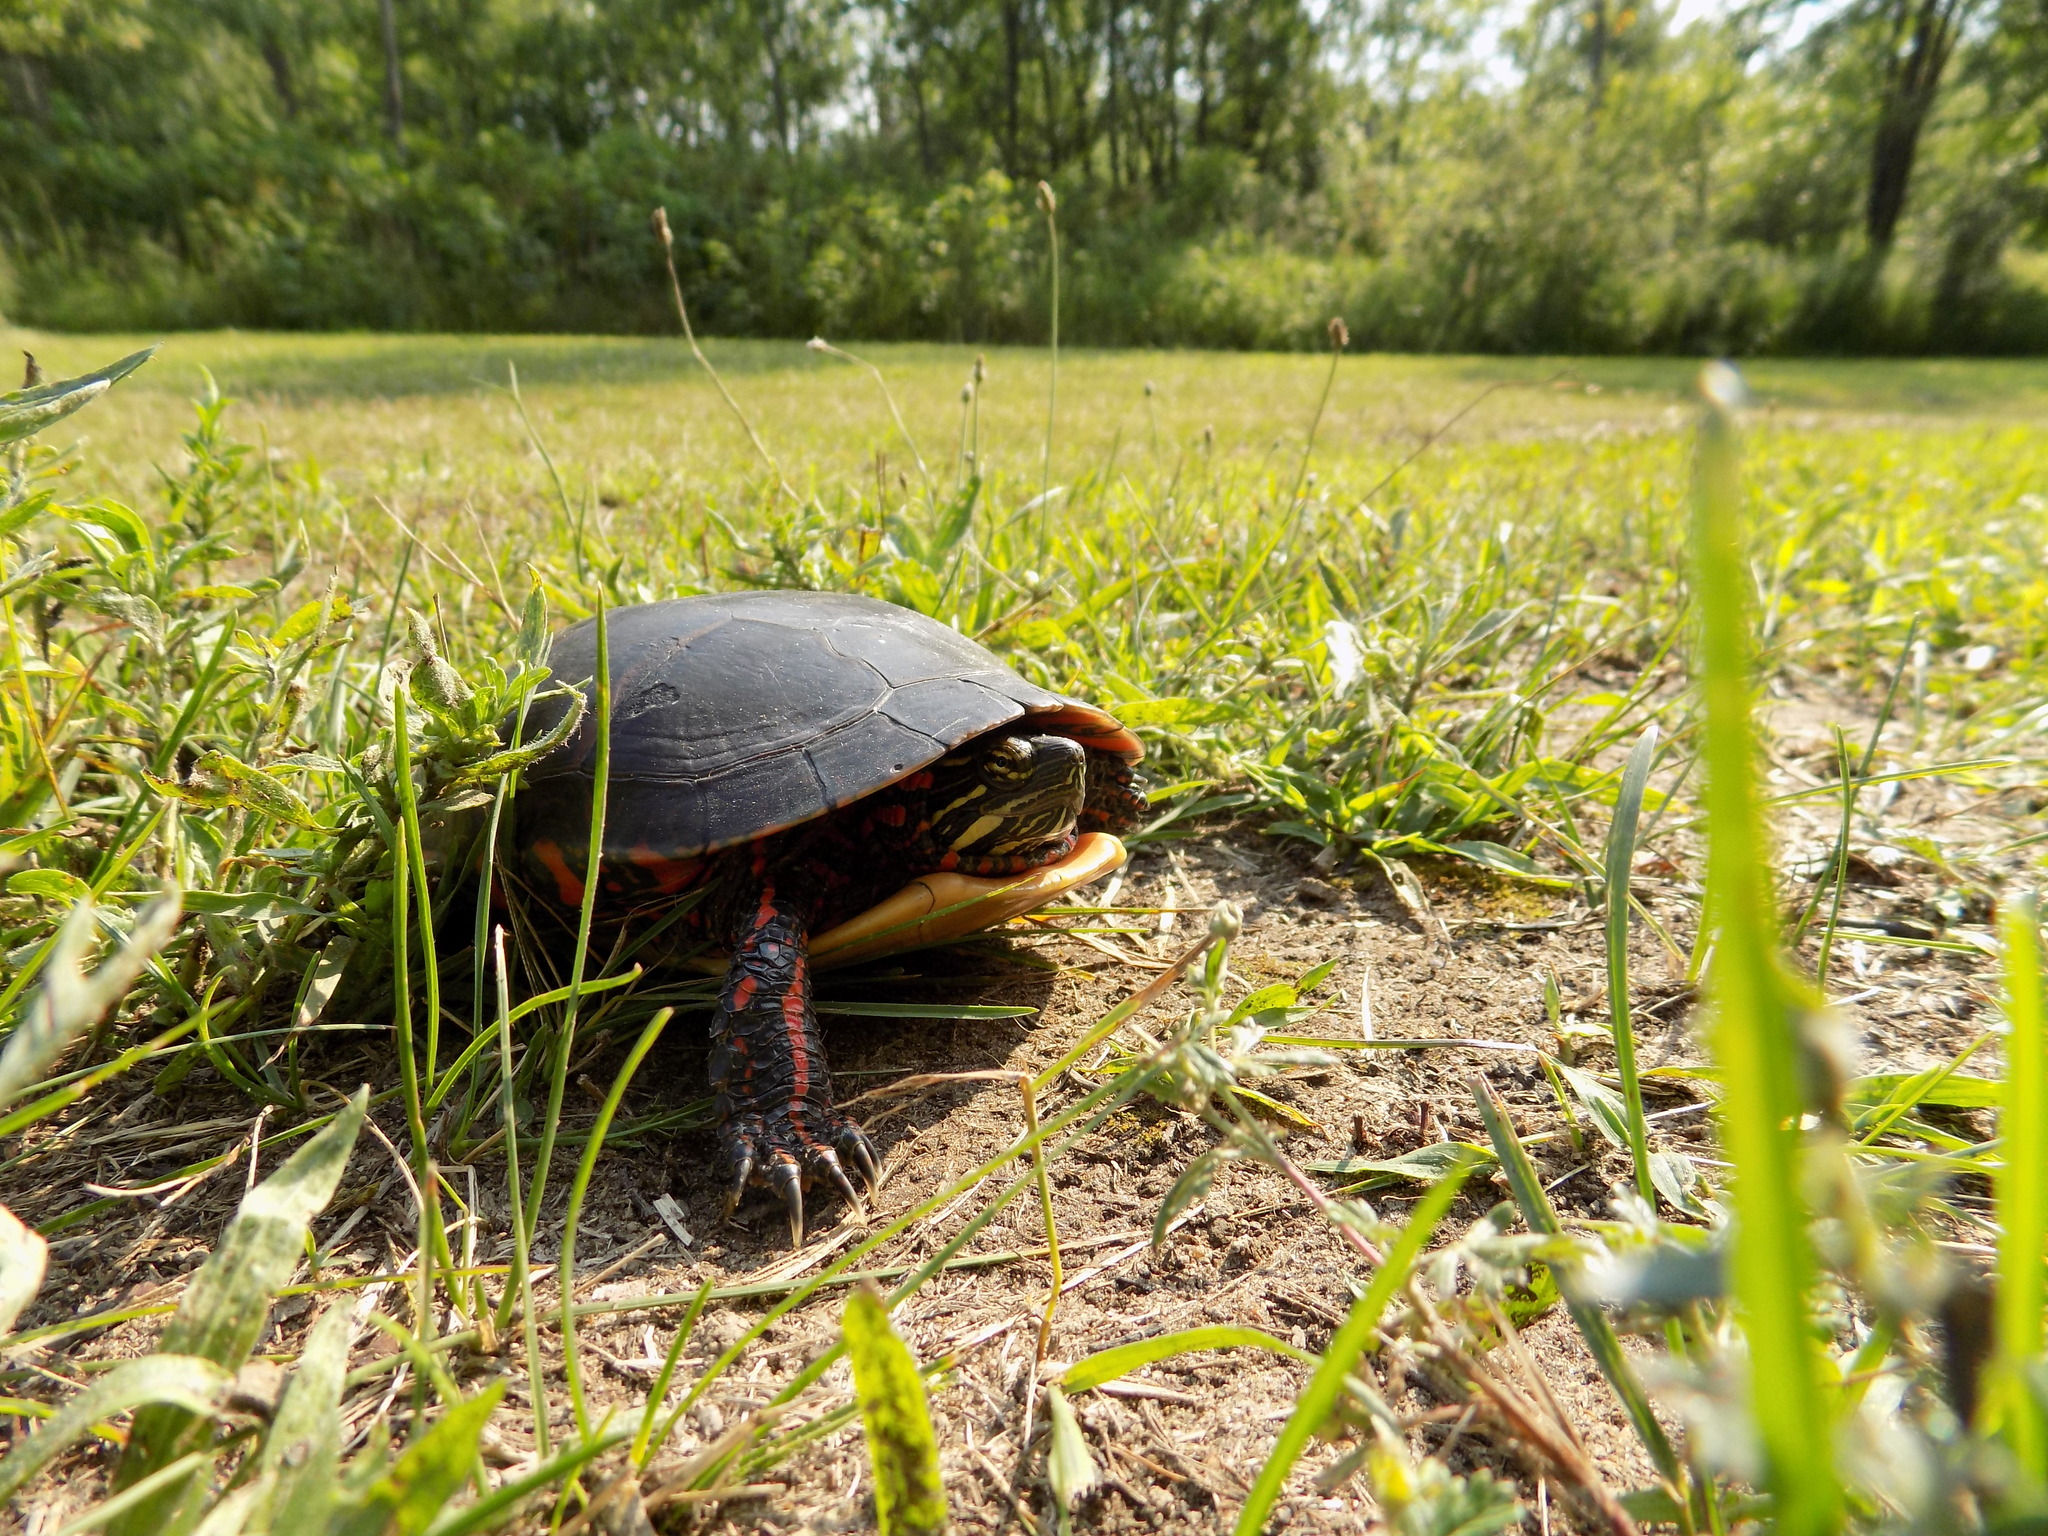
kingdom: Animalia
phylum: Chordata
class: Testudines
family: Emydidae
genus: Chrysemys
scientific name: Chrysemys picta
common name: Painted turtle
